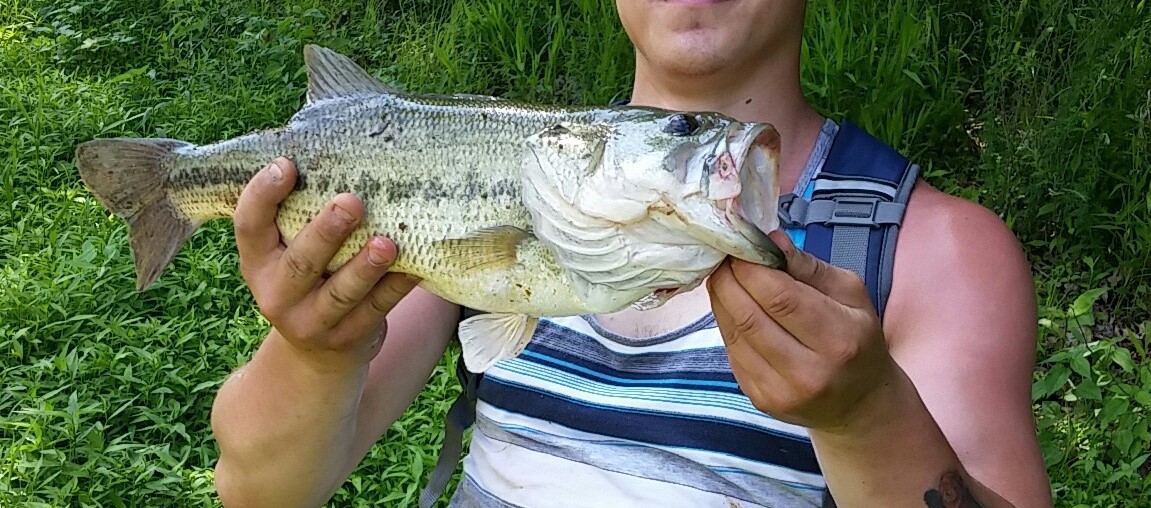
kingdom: Animalia
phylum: Chordata
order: Perciformes
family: Centrarchidae
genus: Micropterus
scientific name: Micropterus
